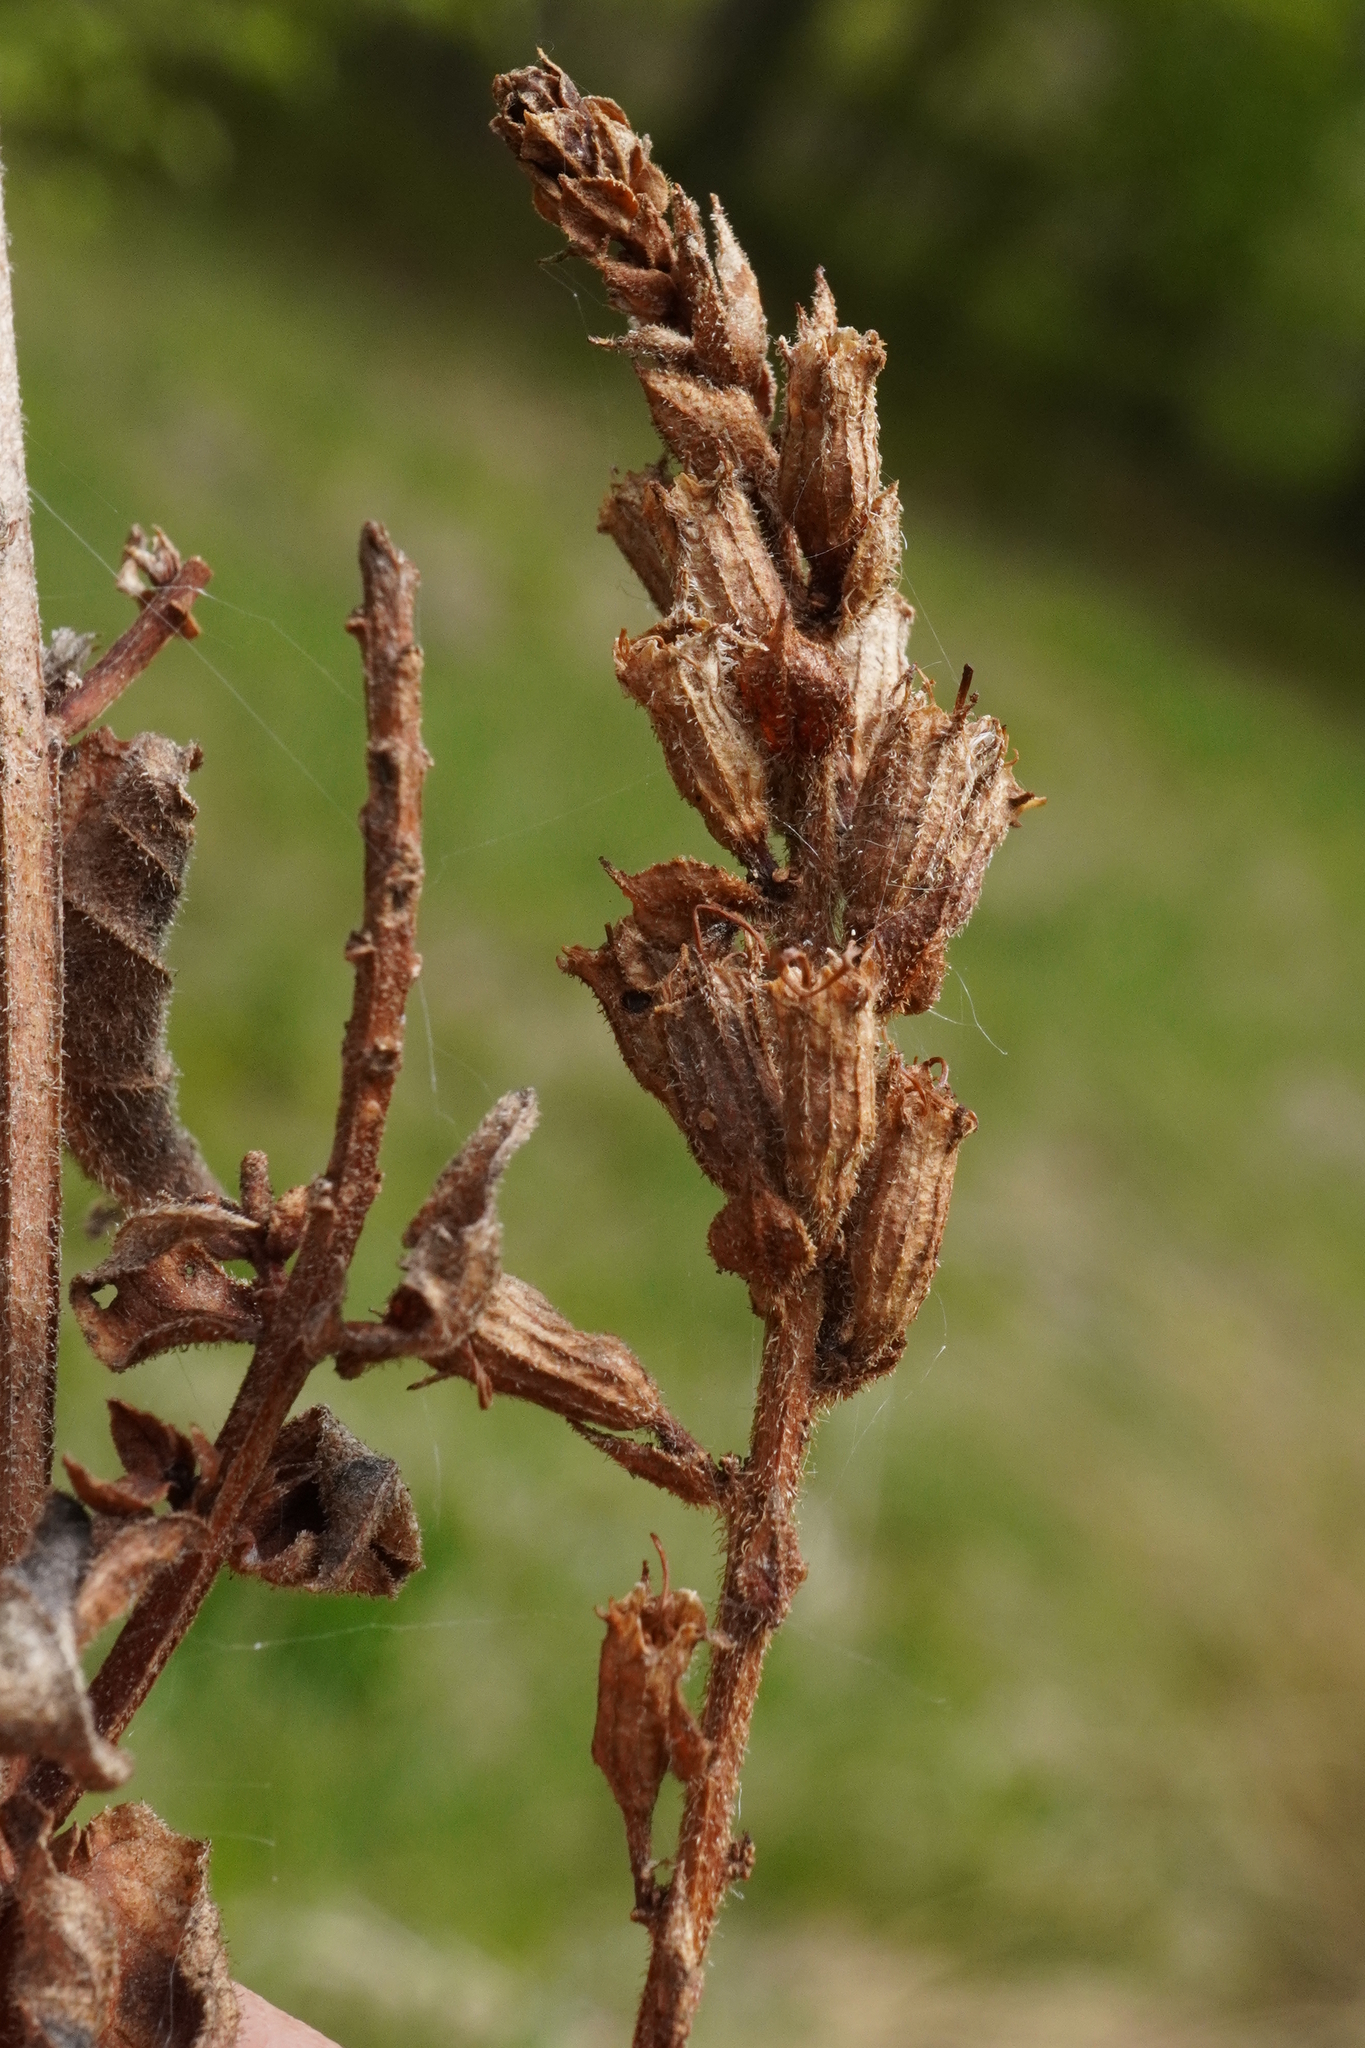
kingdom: Plantae
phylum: Tracheophyta
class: Magnoliopsida
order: Myrtales
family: Lythraceae
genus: Lythrum
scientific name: Lythrum salicaria
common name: Purple loosestrife
